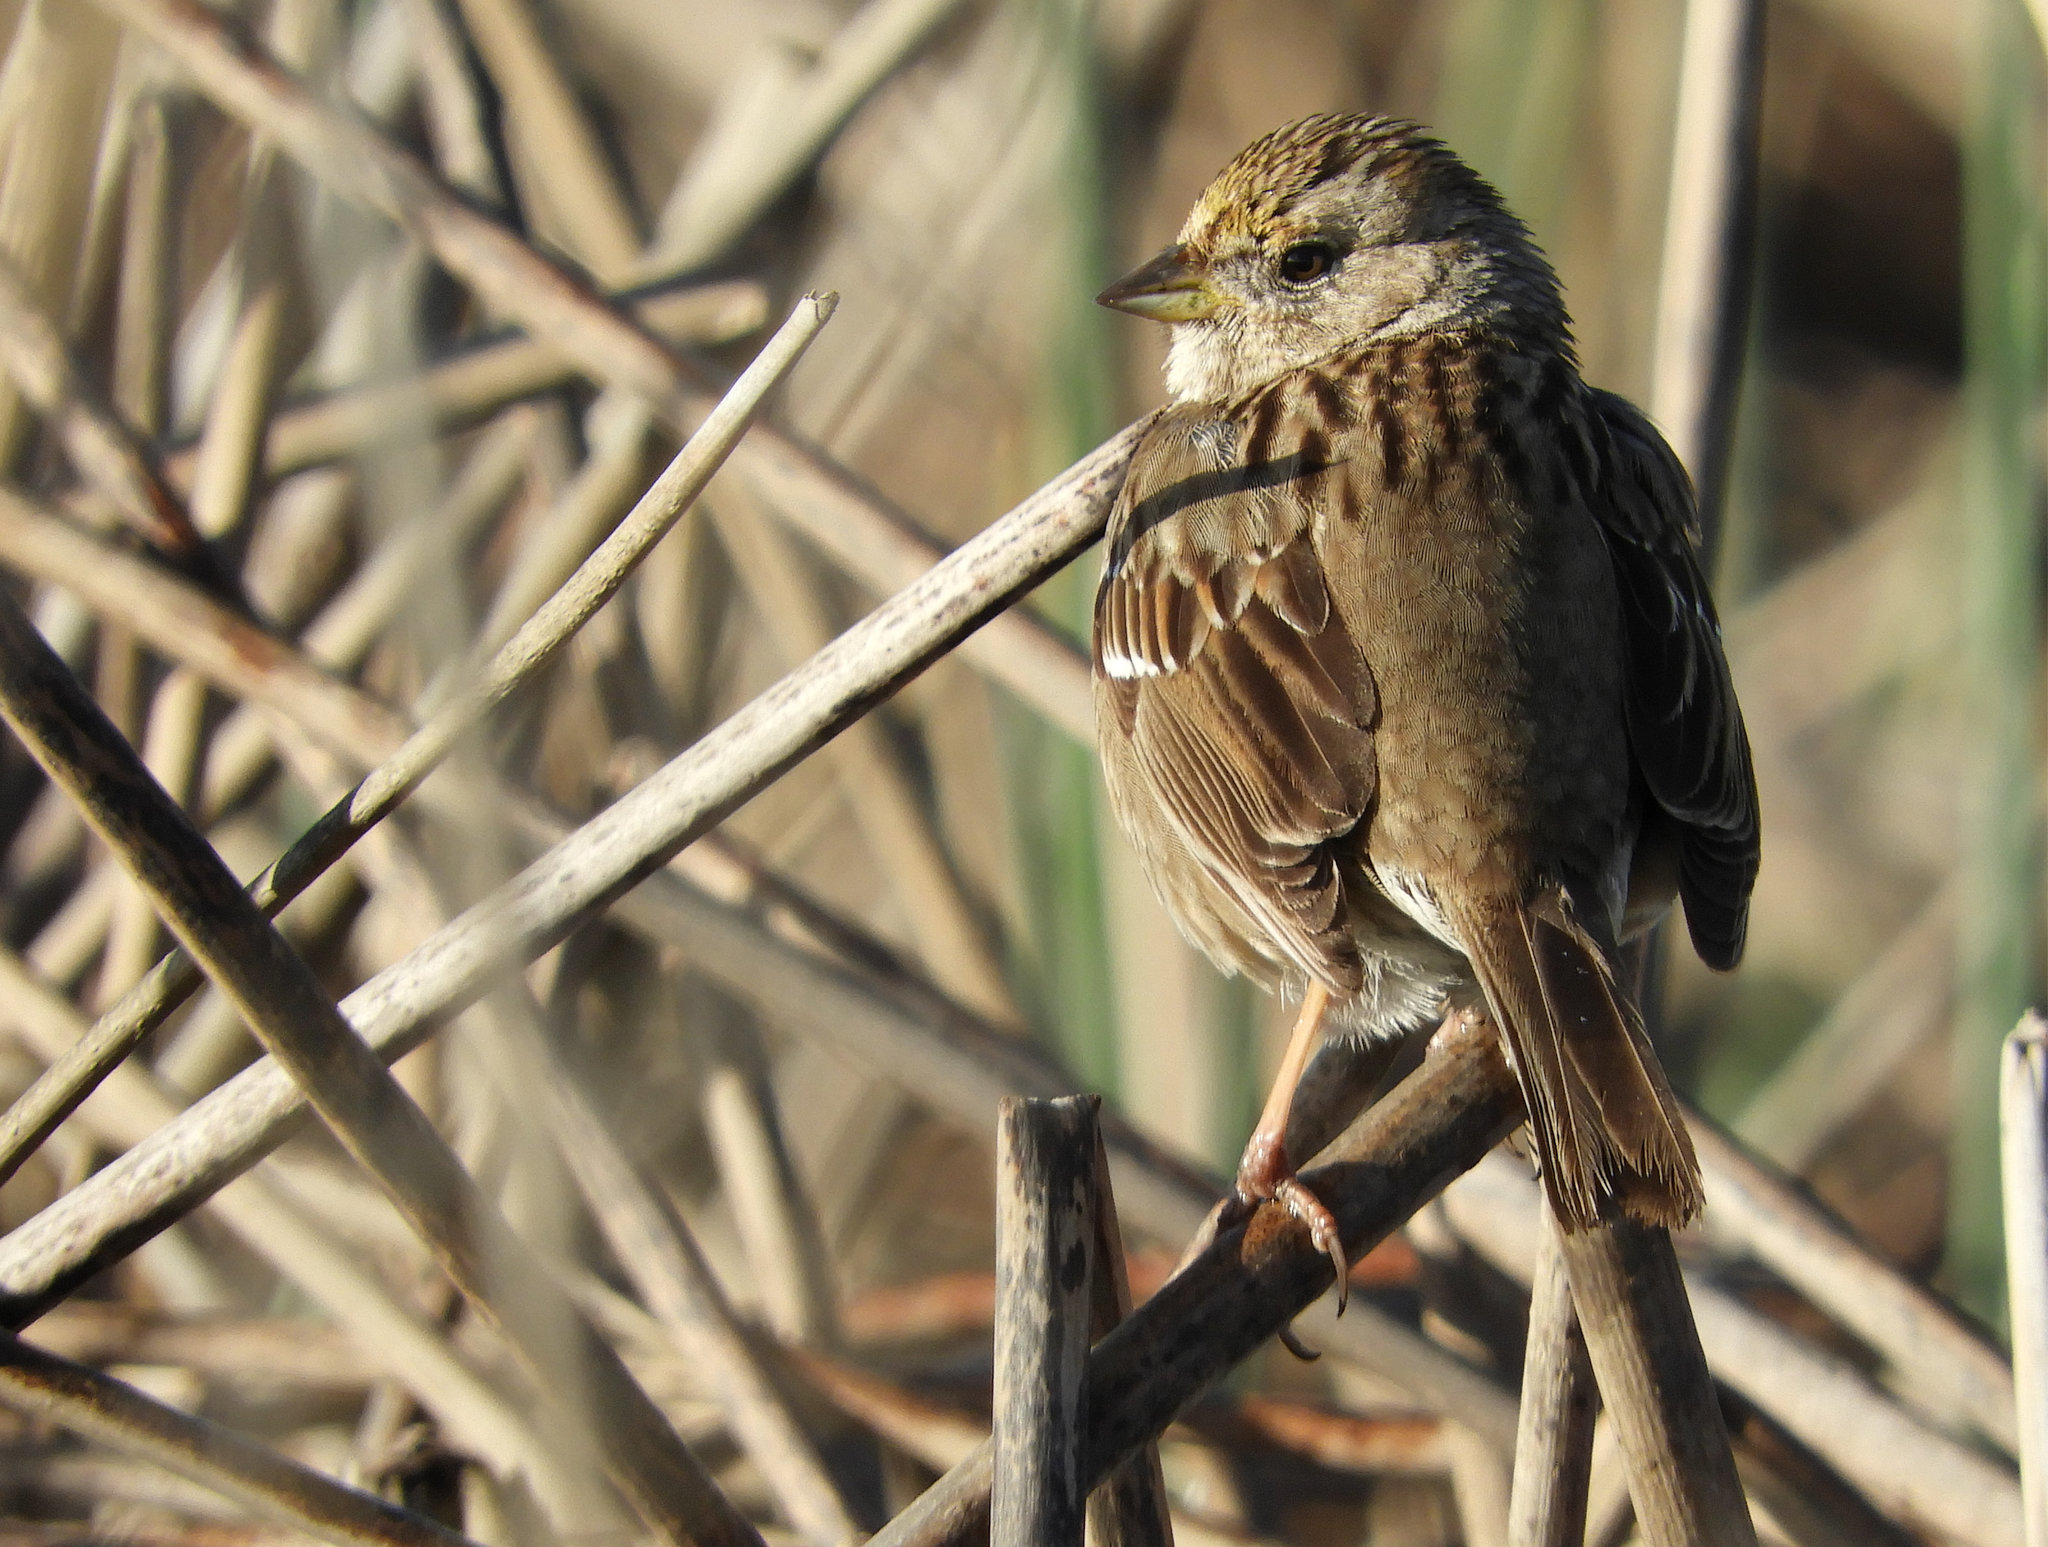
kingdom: Animalia
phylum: Chordata
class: Aves
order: Passeriformes
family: Passerellidae
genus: Zonotrichia
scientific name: Zonotrichia atricapilla
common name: Golden-crowned sparrow
